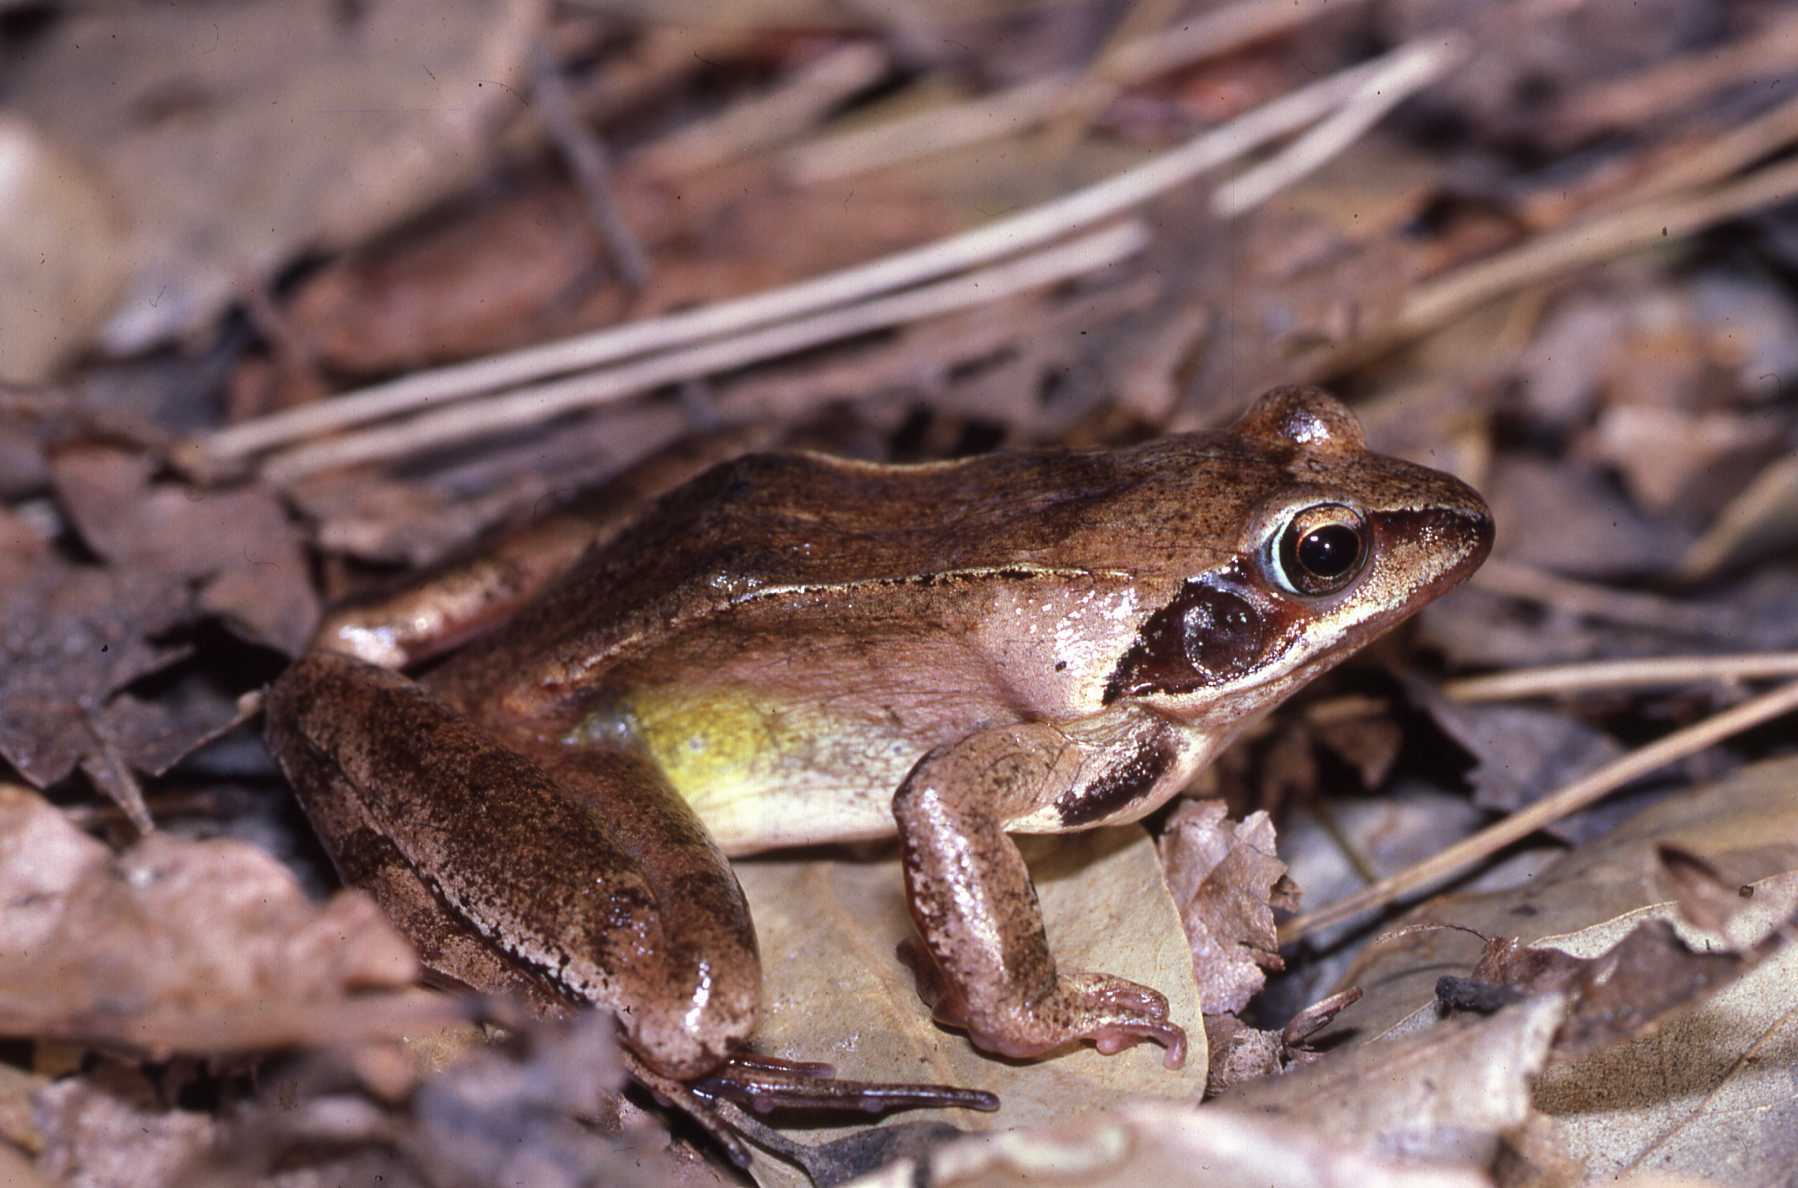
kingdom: Animalia
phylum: Chordata
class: Amphibia
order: Anura
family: Ranidae
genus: Rana
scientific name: Rana dalmatina
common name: Agile frog
